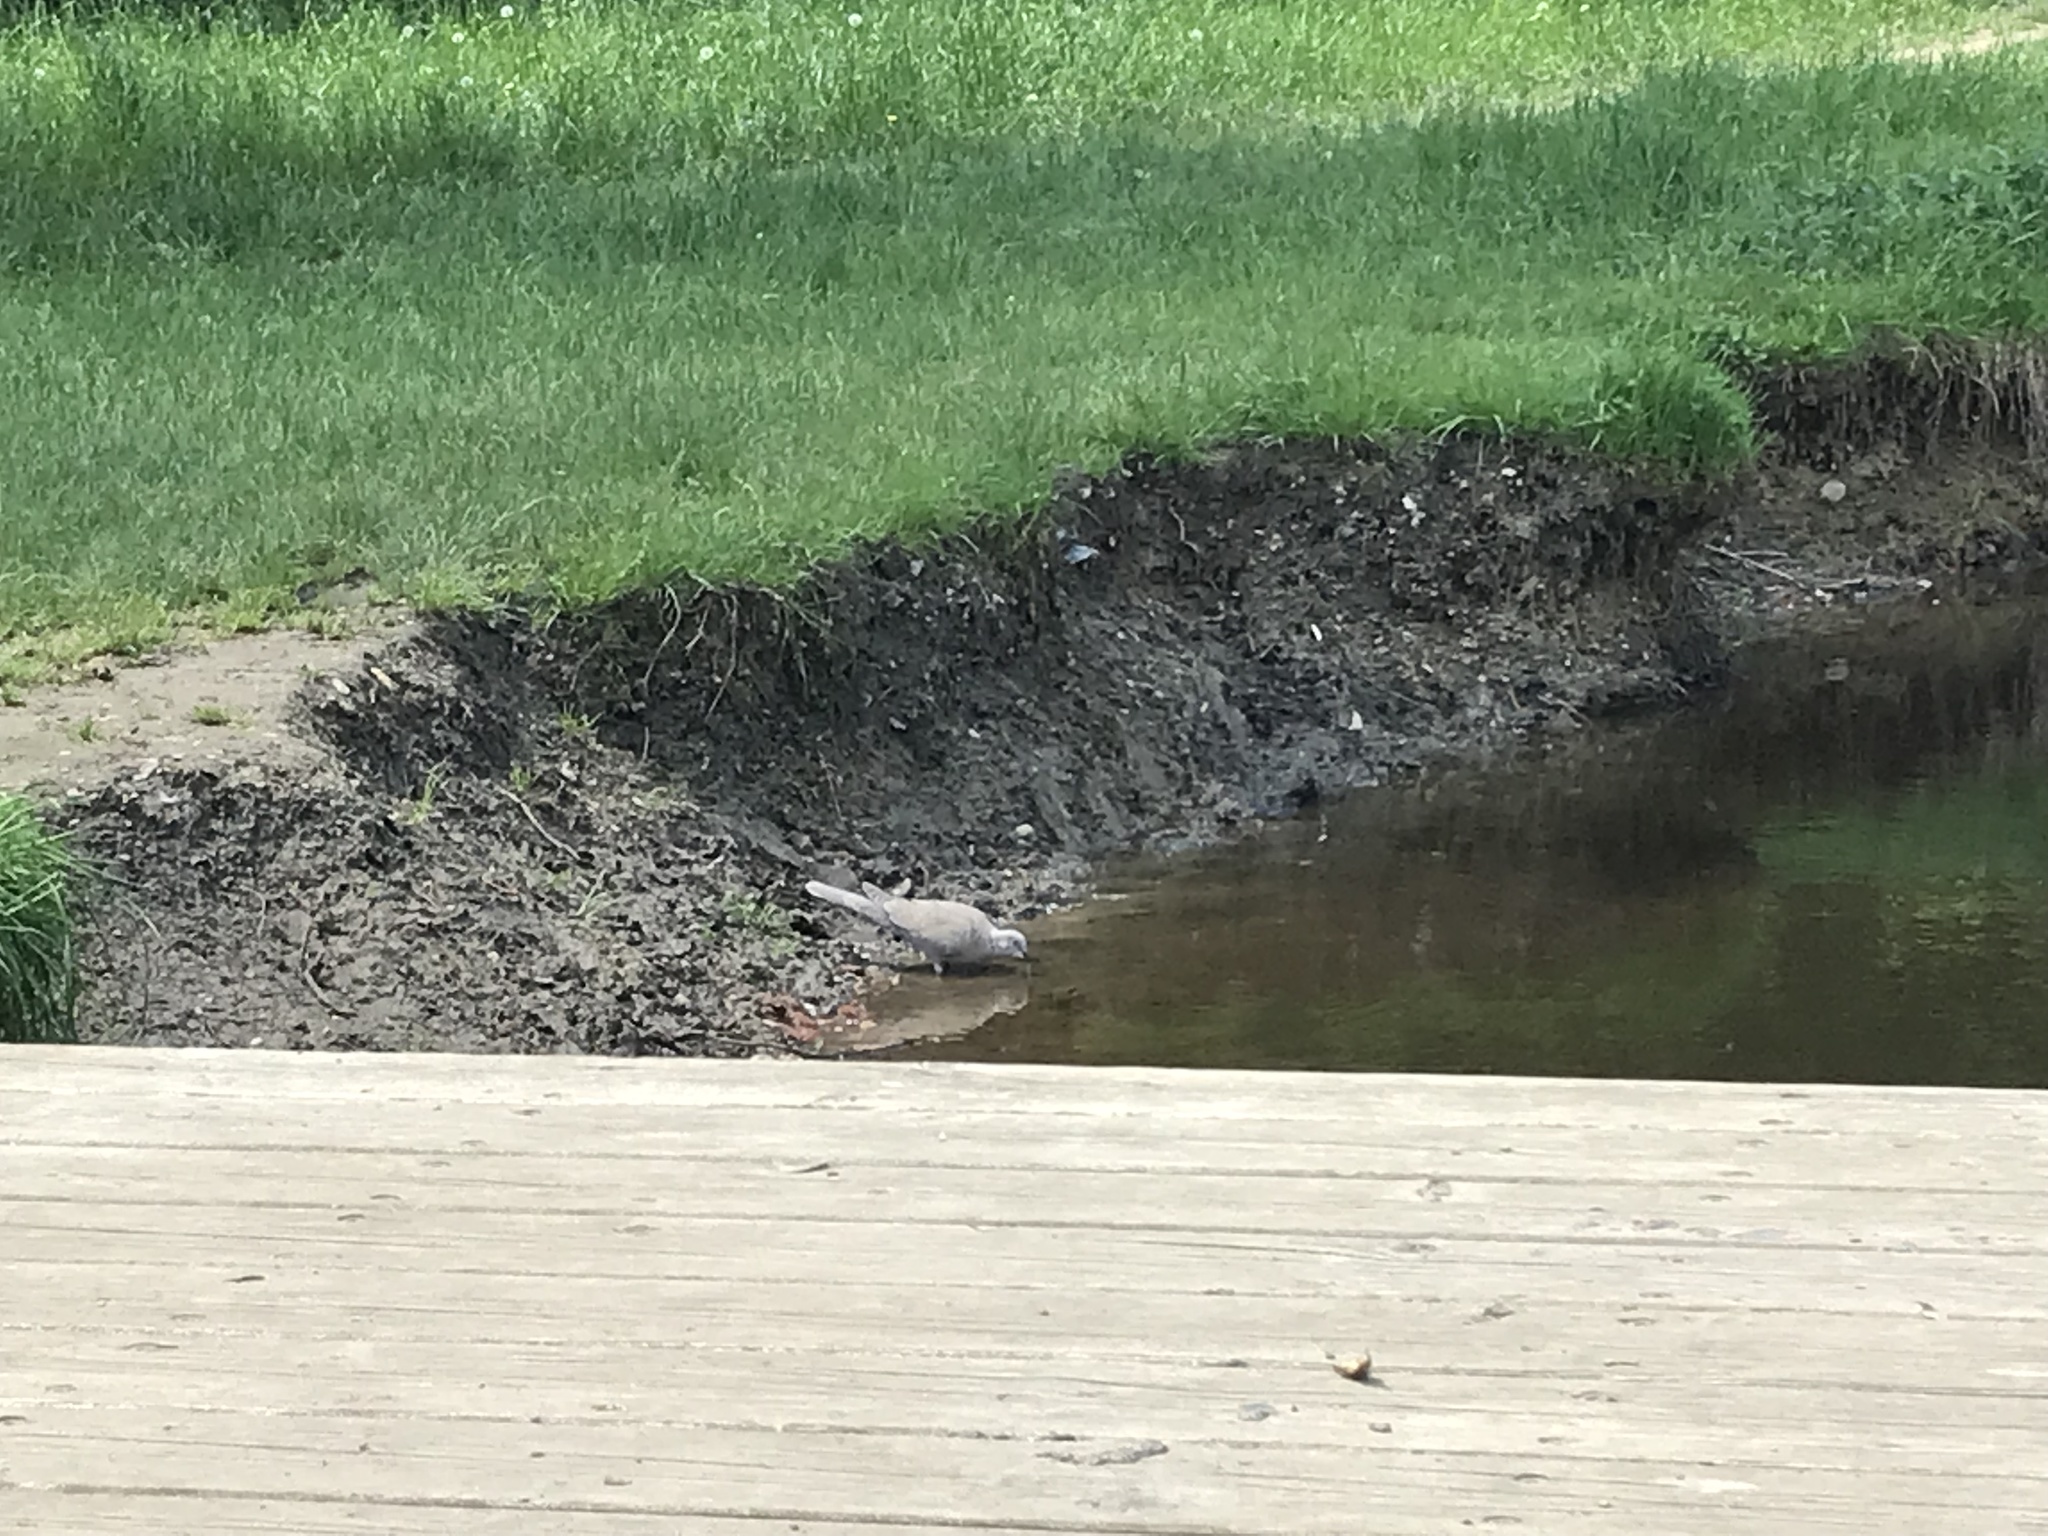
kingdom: Animalia
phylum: Chordata
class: Aves
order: Columbiformes
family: Columbidae
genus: Streptopelia
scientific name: Streptopelia decaocto
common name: Eurasian collared dove
